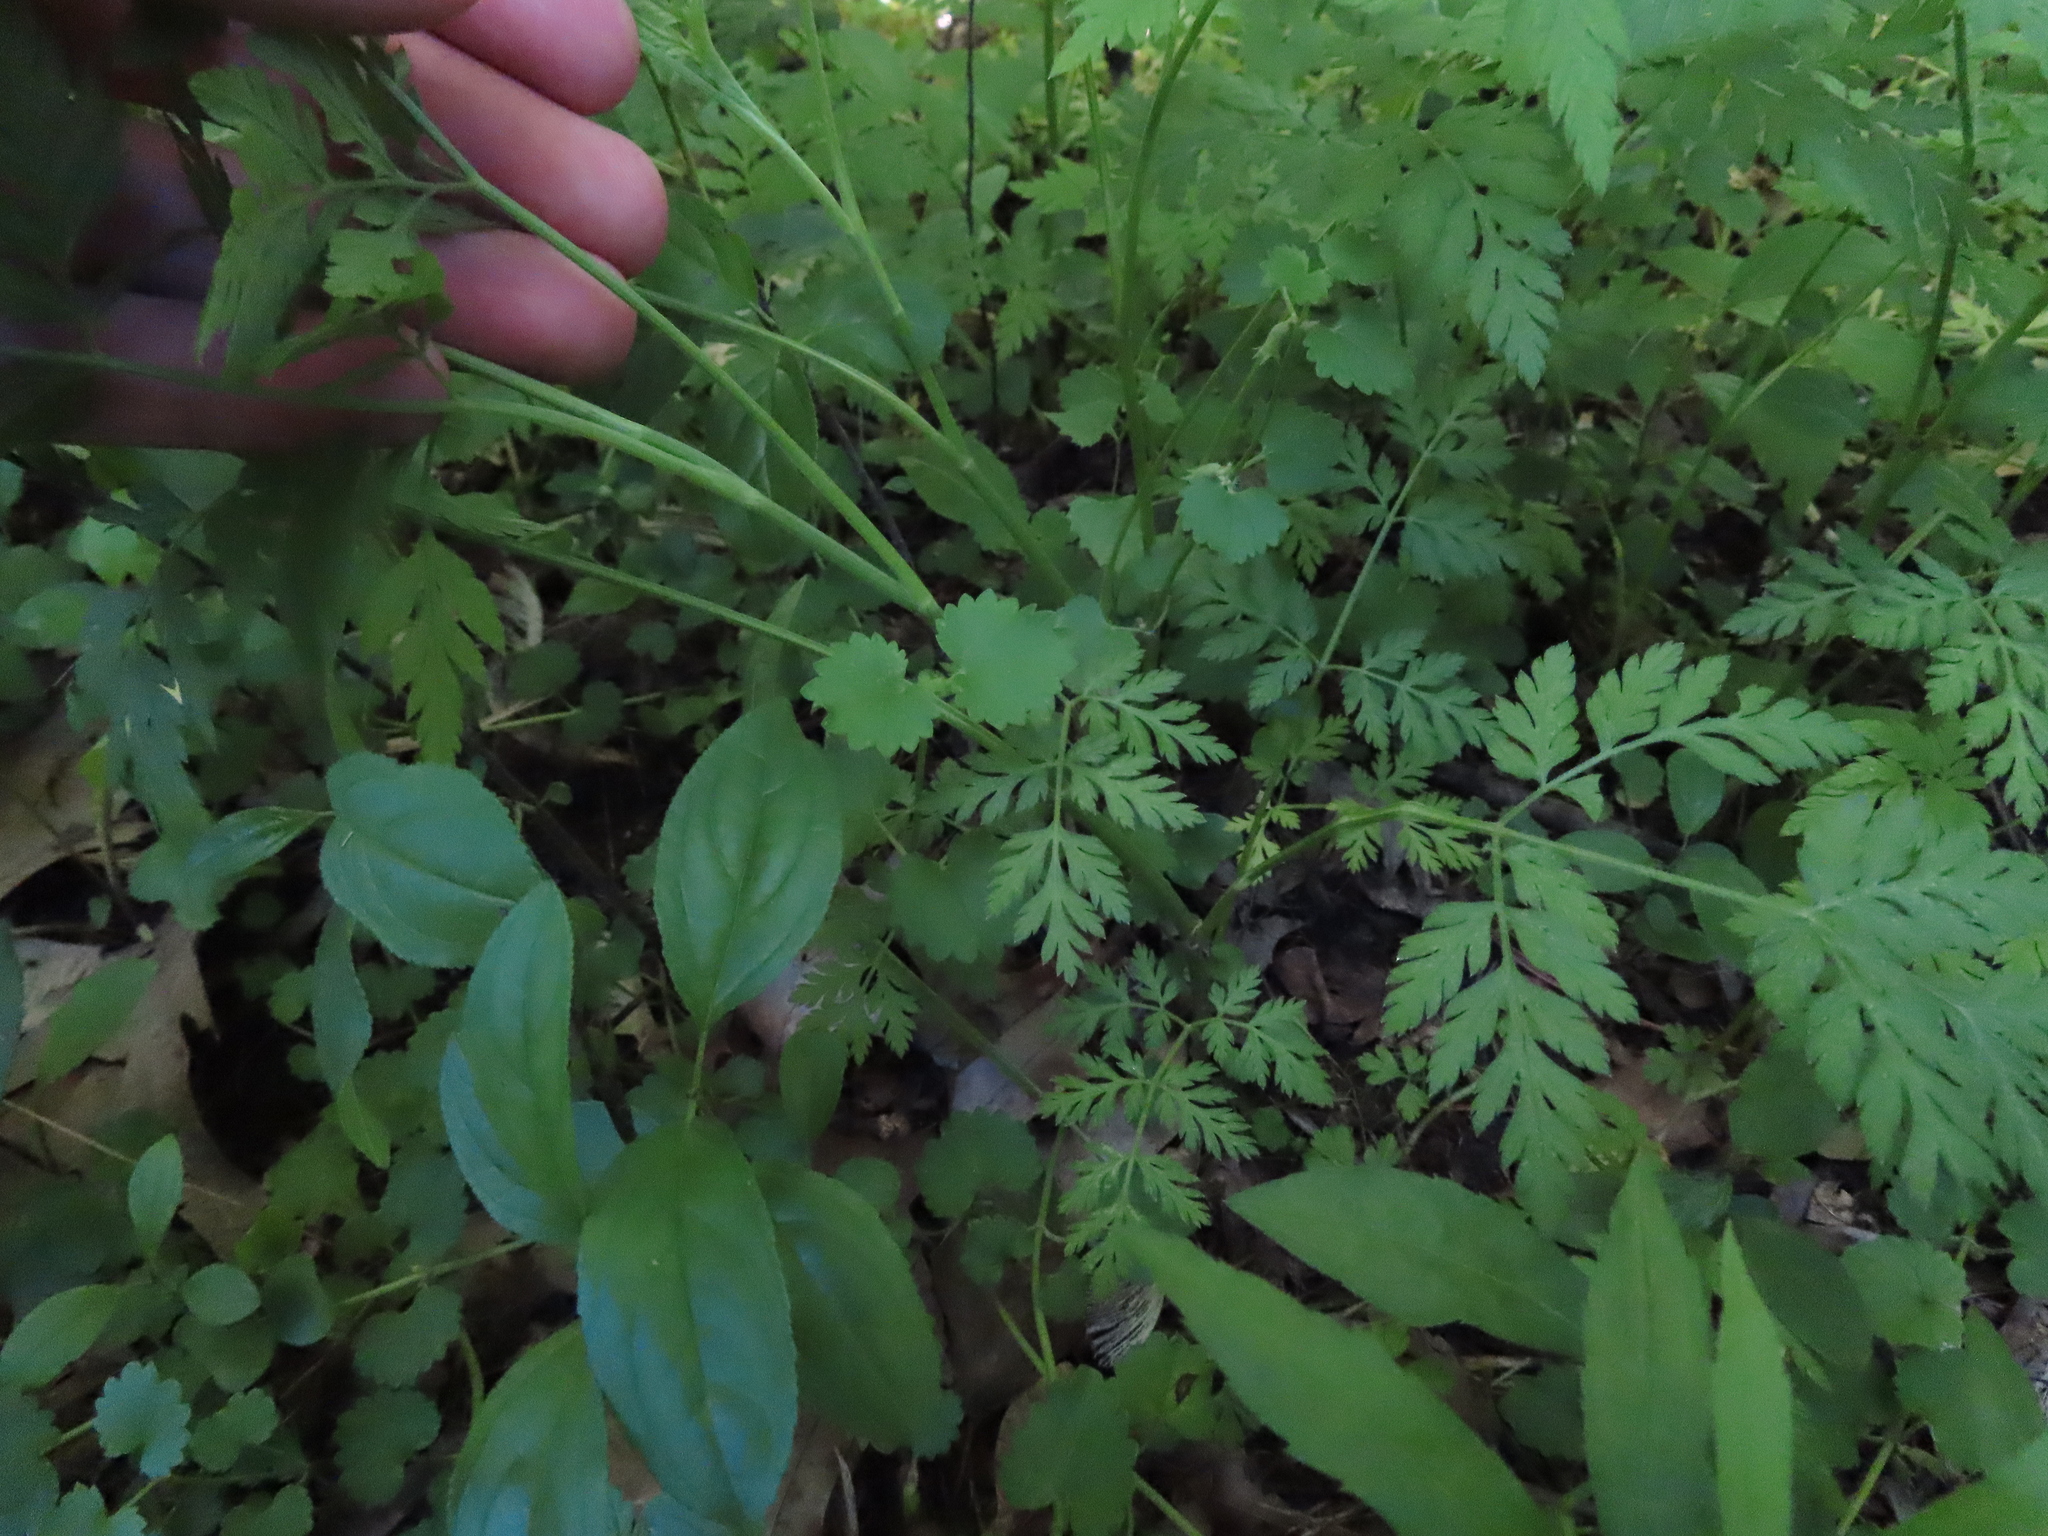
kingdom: Plantae
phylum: Tracheophyta
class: Magnoliopsida
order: Rosales
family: Rhamnaceae
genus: Rhamnus
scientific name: Rhamnus cathartica
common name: Common buckthorn
